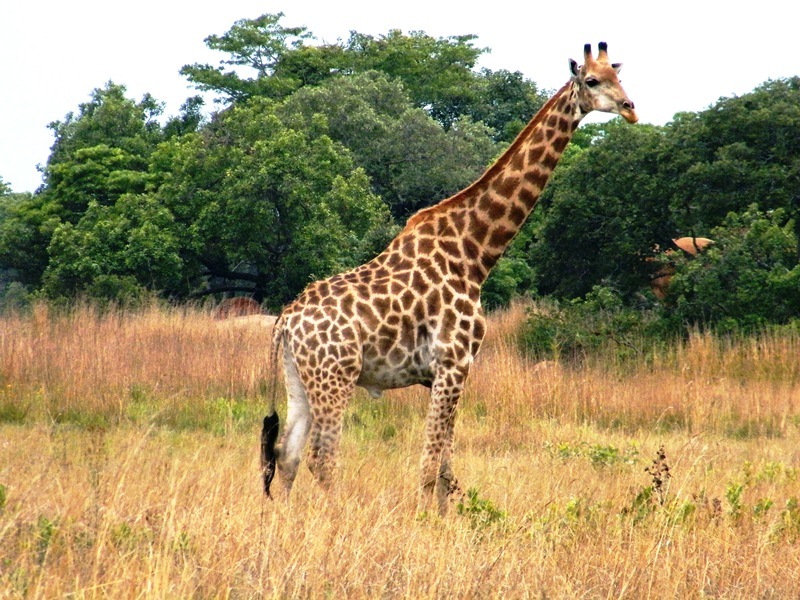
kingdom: Animalia
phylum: Chordata
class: Mammalia
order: Artiodactyla
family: Giraffidae
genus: Giraffa
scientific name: Giraffa giraffa
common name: Southern giraffe
